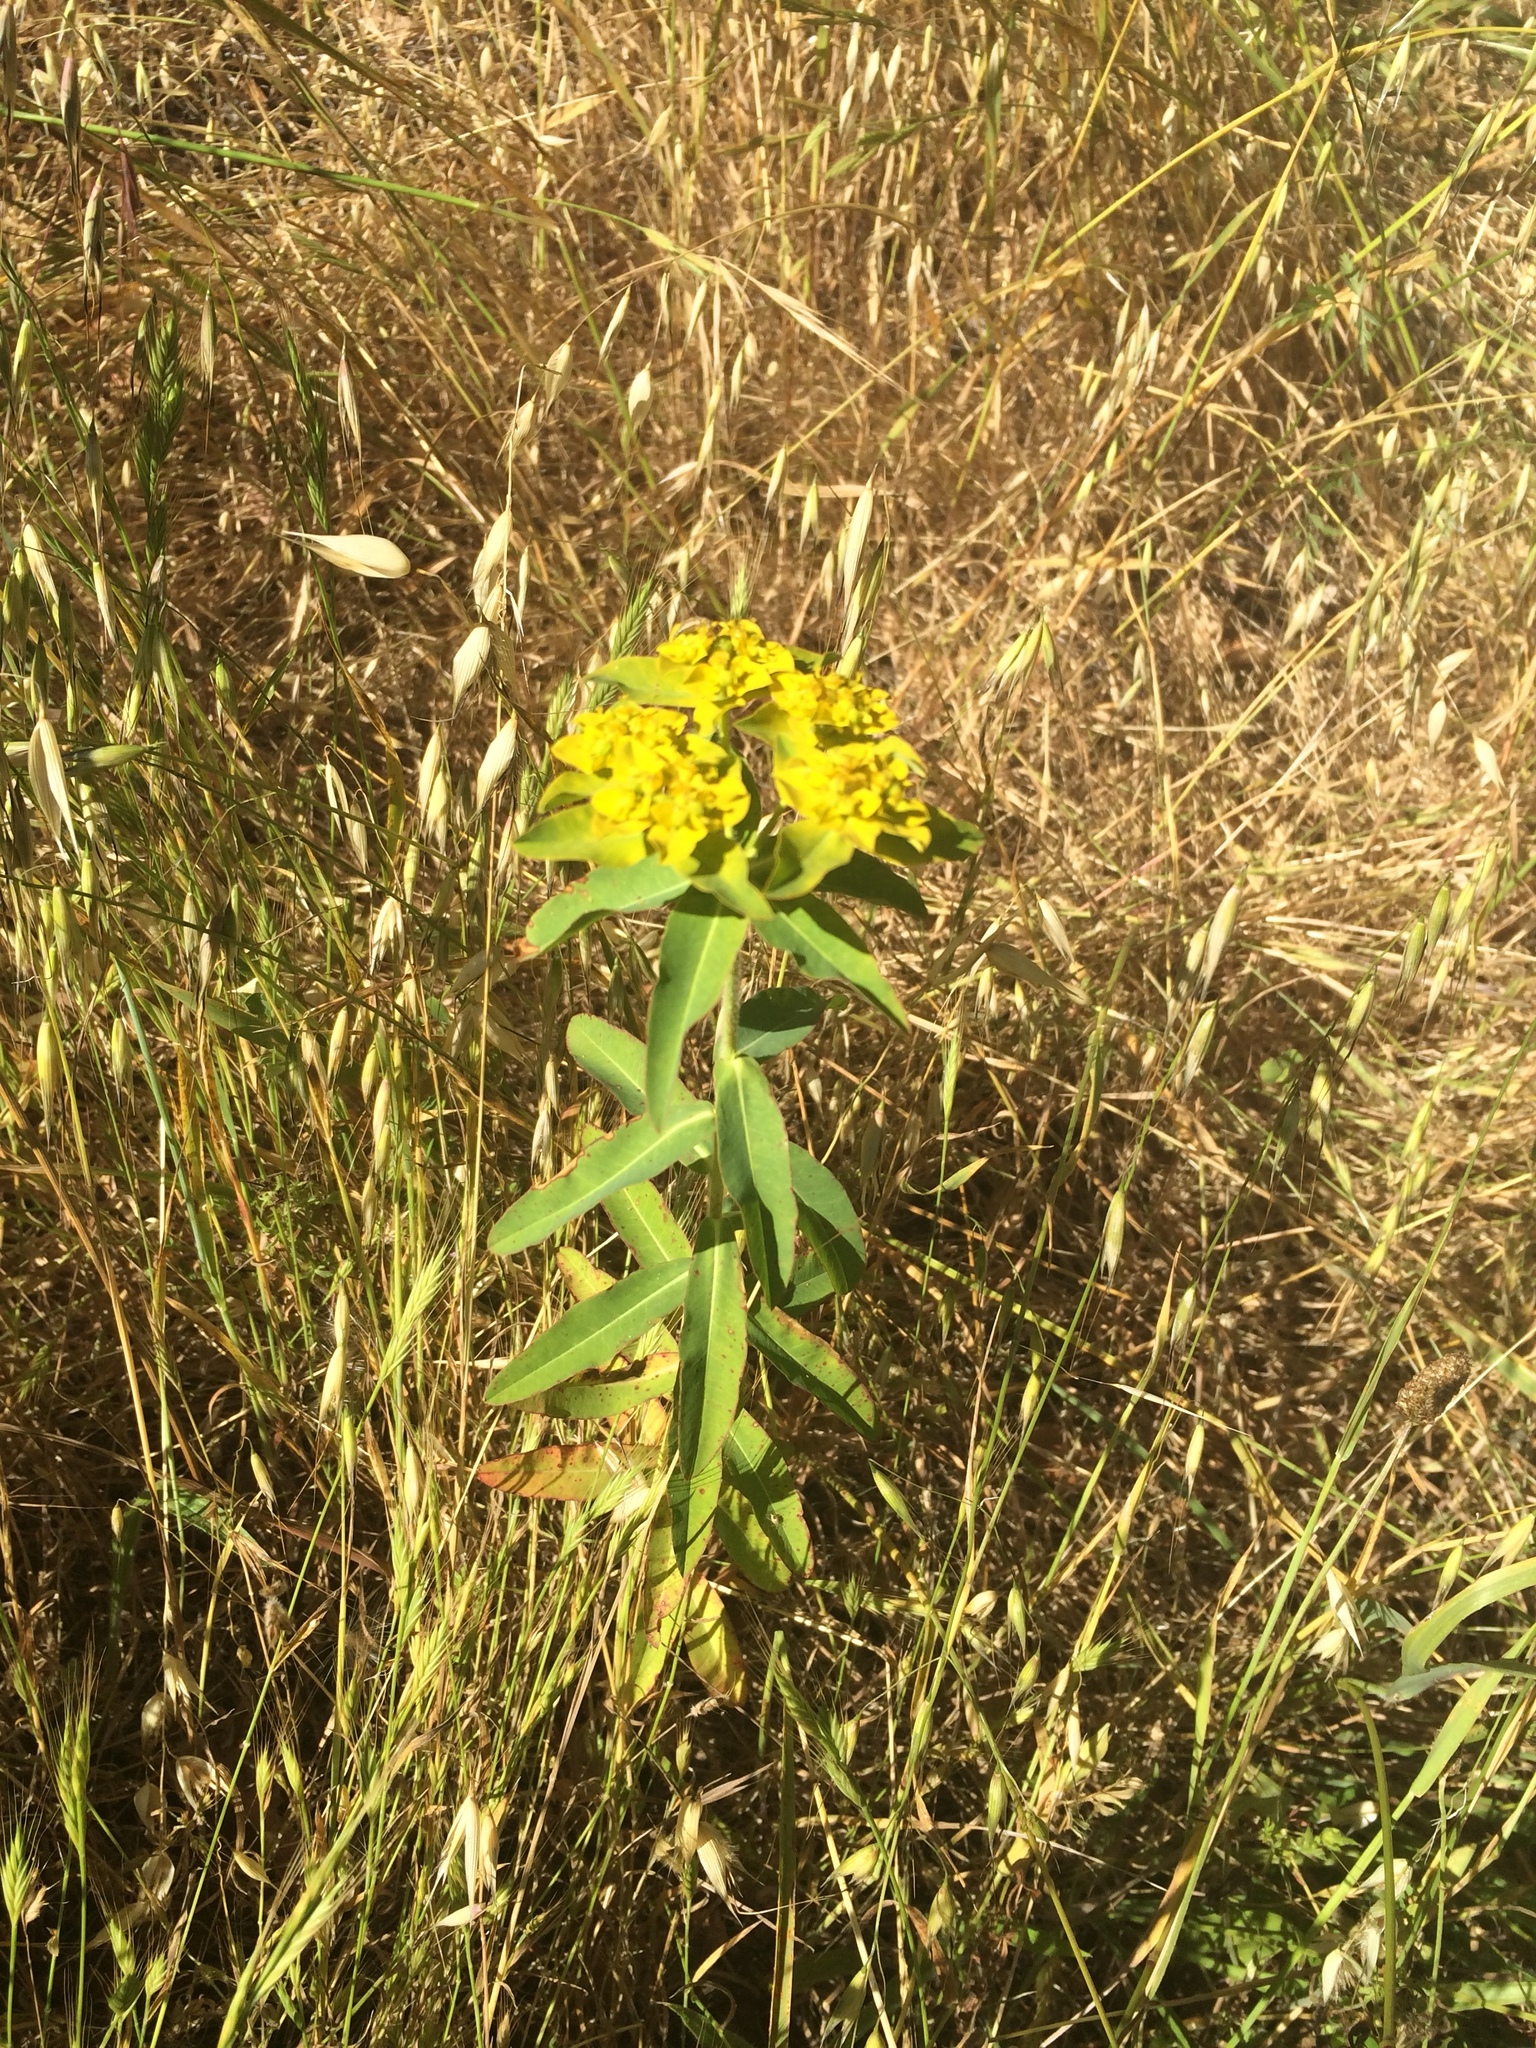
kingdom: Plantae
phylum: Tracheophyta
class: Magnoliopsida
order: Malpighiales
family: Euphorbiaceae
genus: Euphorbia
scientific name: Euphorbia oblongata
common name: Balkan spurge
